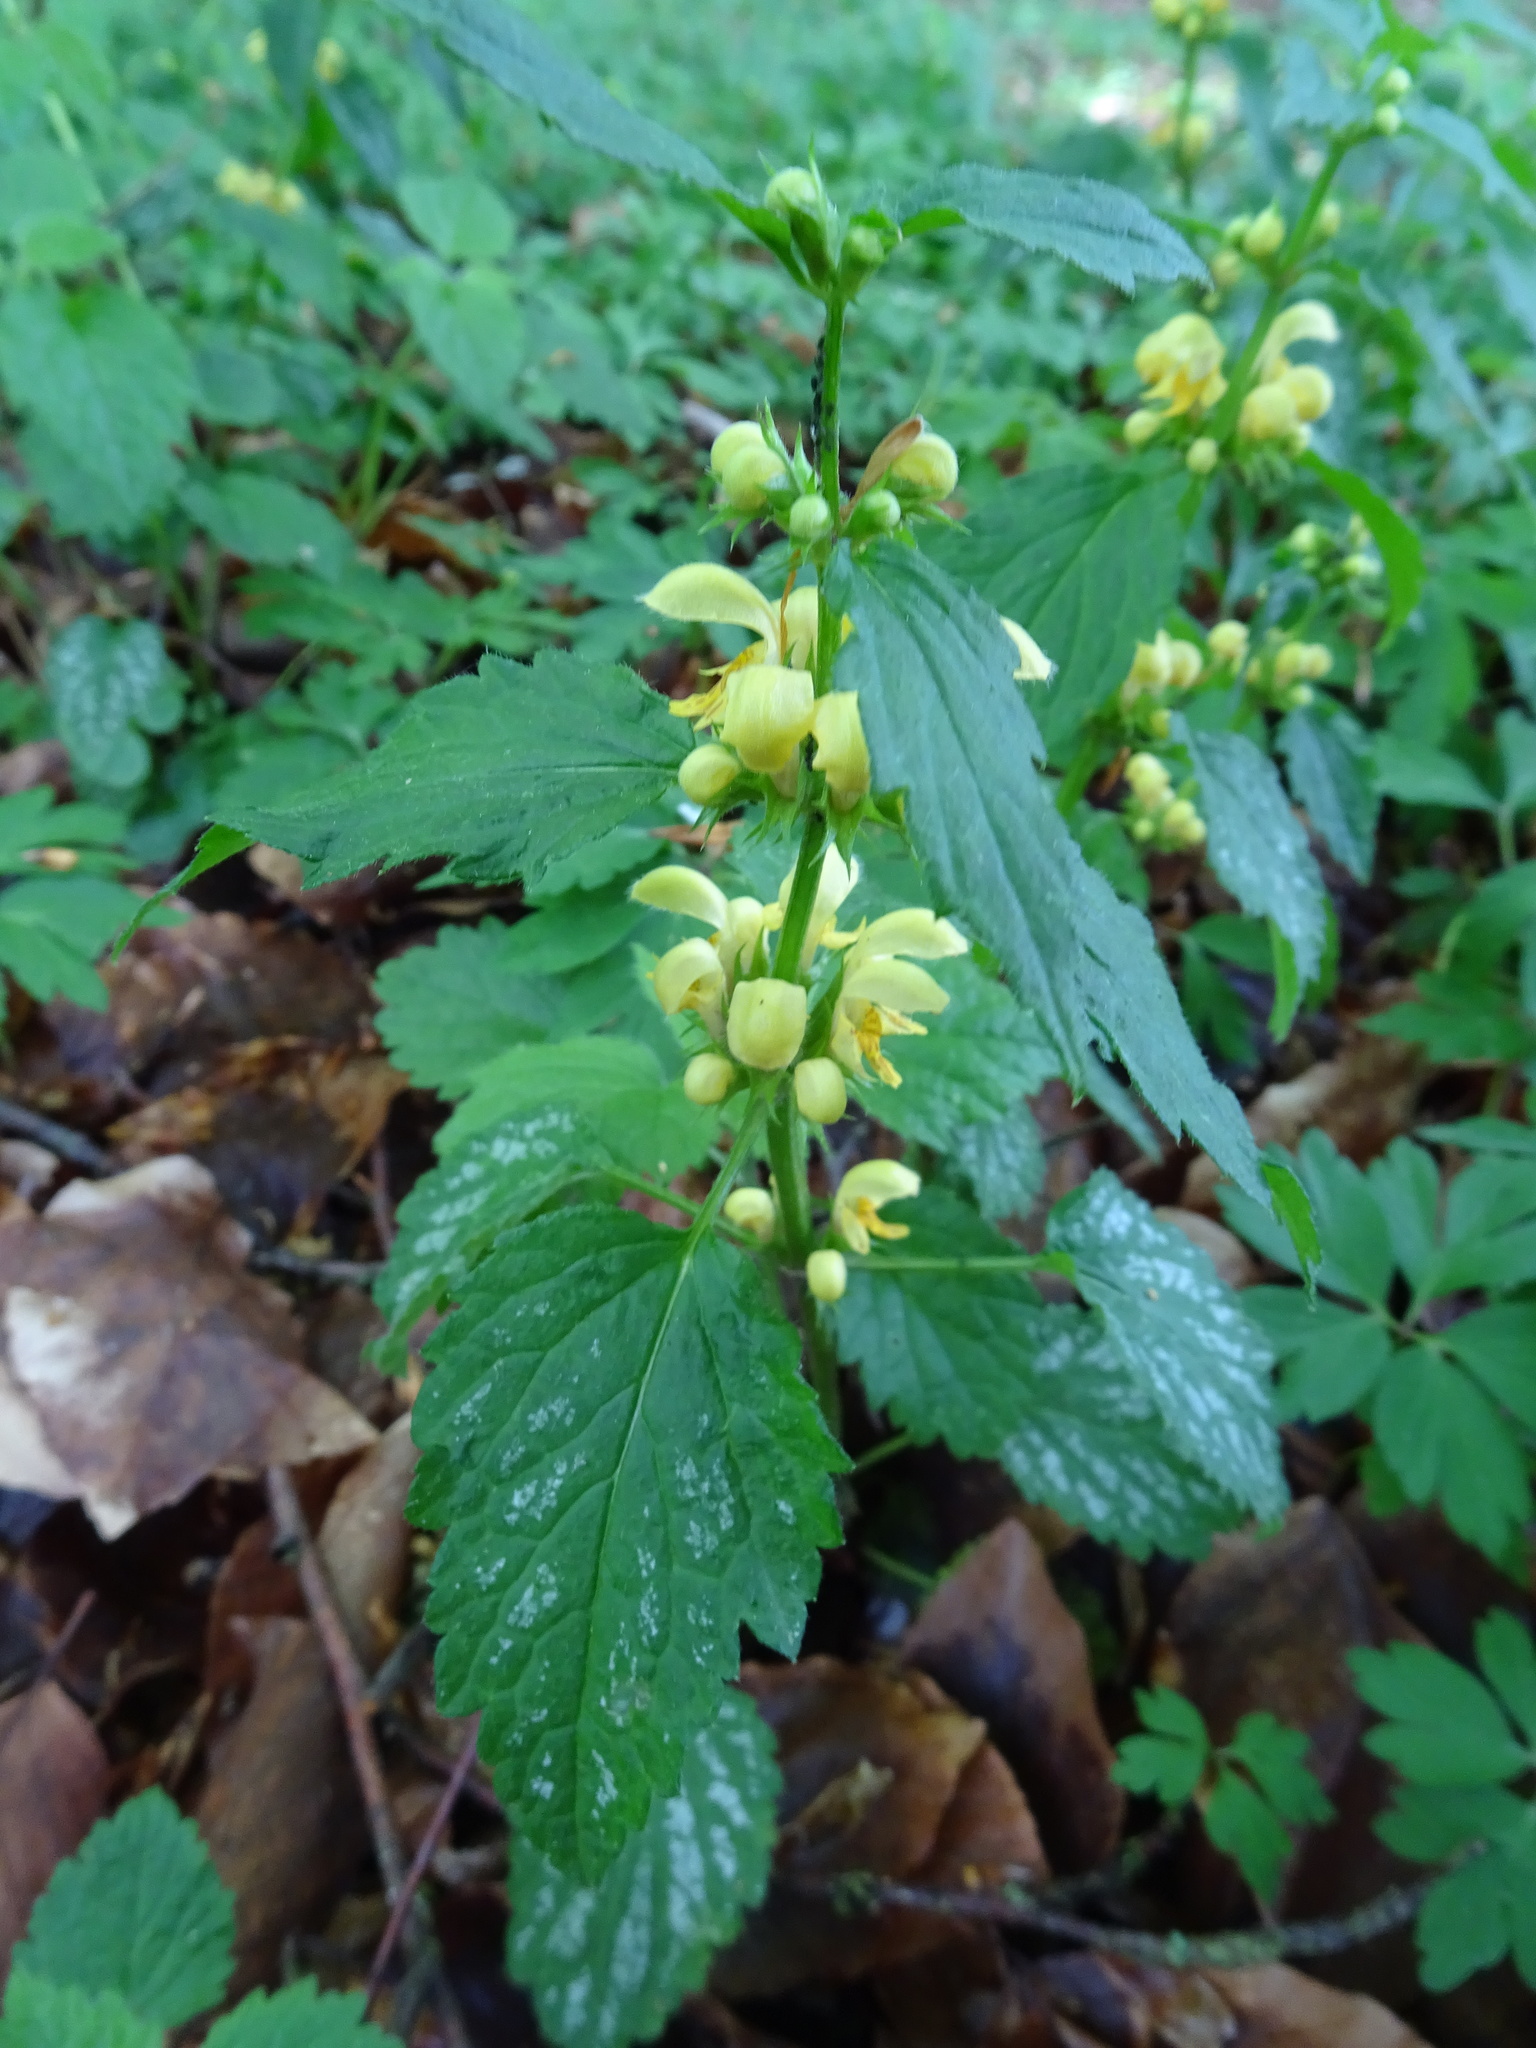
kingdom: Plantae
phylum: Tracheophyta
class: Magnoliopsida
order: Lamiales
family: Lamiaceae
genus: Lamium
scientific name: Lamium galeobdolon
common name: Yellow archangel
